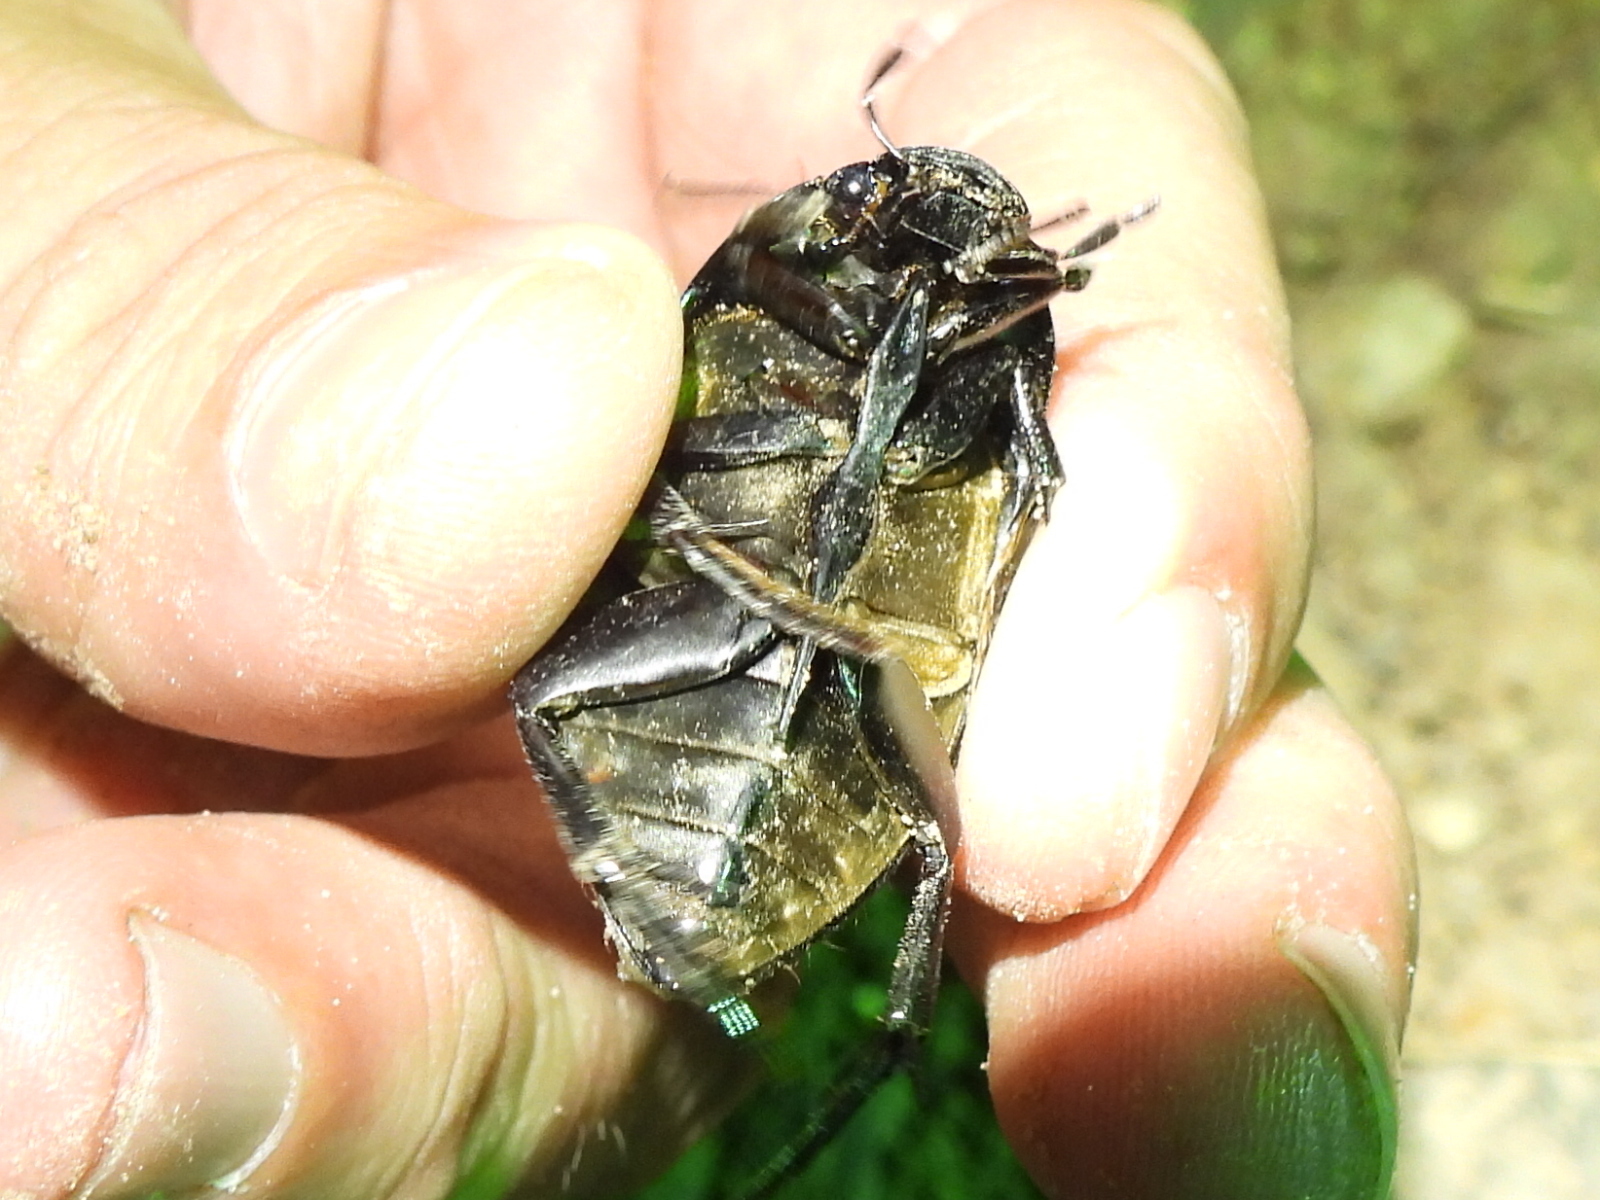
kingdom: Animalia
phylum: Arthropoda
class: Insecta
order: Coleoptera
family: Hydrophilidae
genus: Hydrophilus
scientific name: Hydrophilus ovatus
